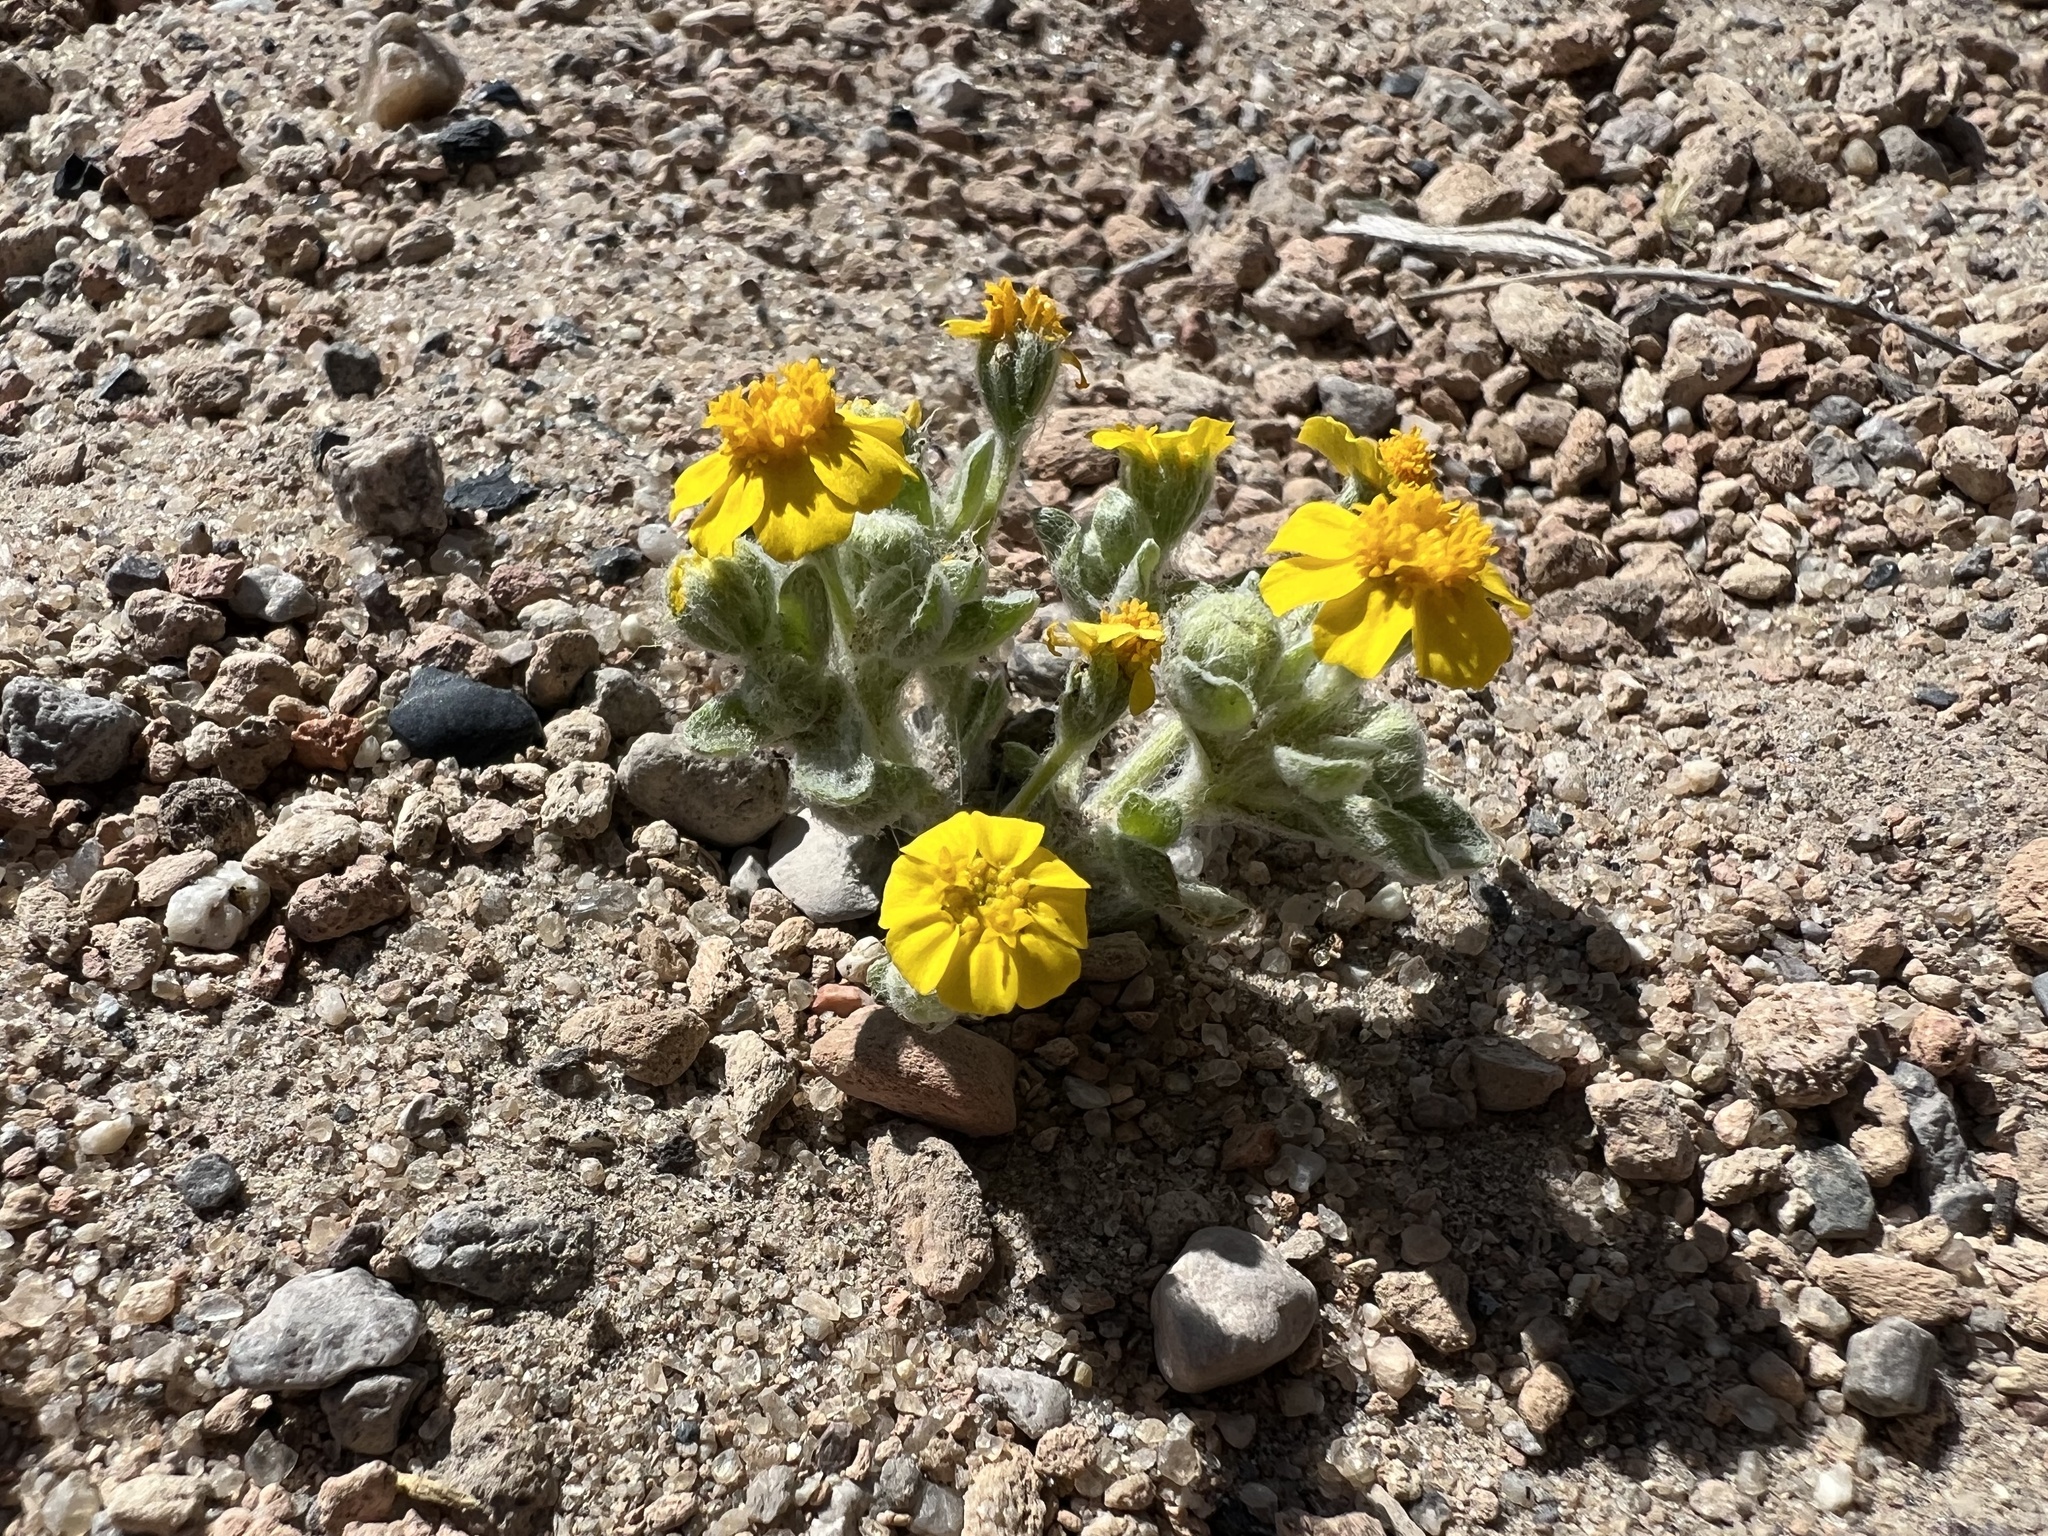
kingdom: Plantae
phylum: Tracheophyta
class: Magnoliopsida
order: Asterales
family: Asteraceae
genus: Eriophyllum
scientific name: Eriophyllum wallacei
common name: Wallace's woolly daisy
